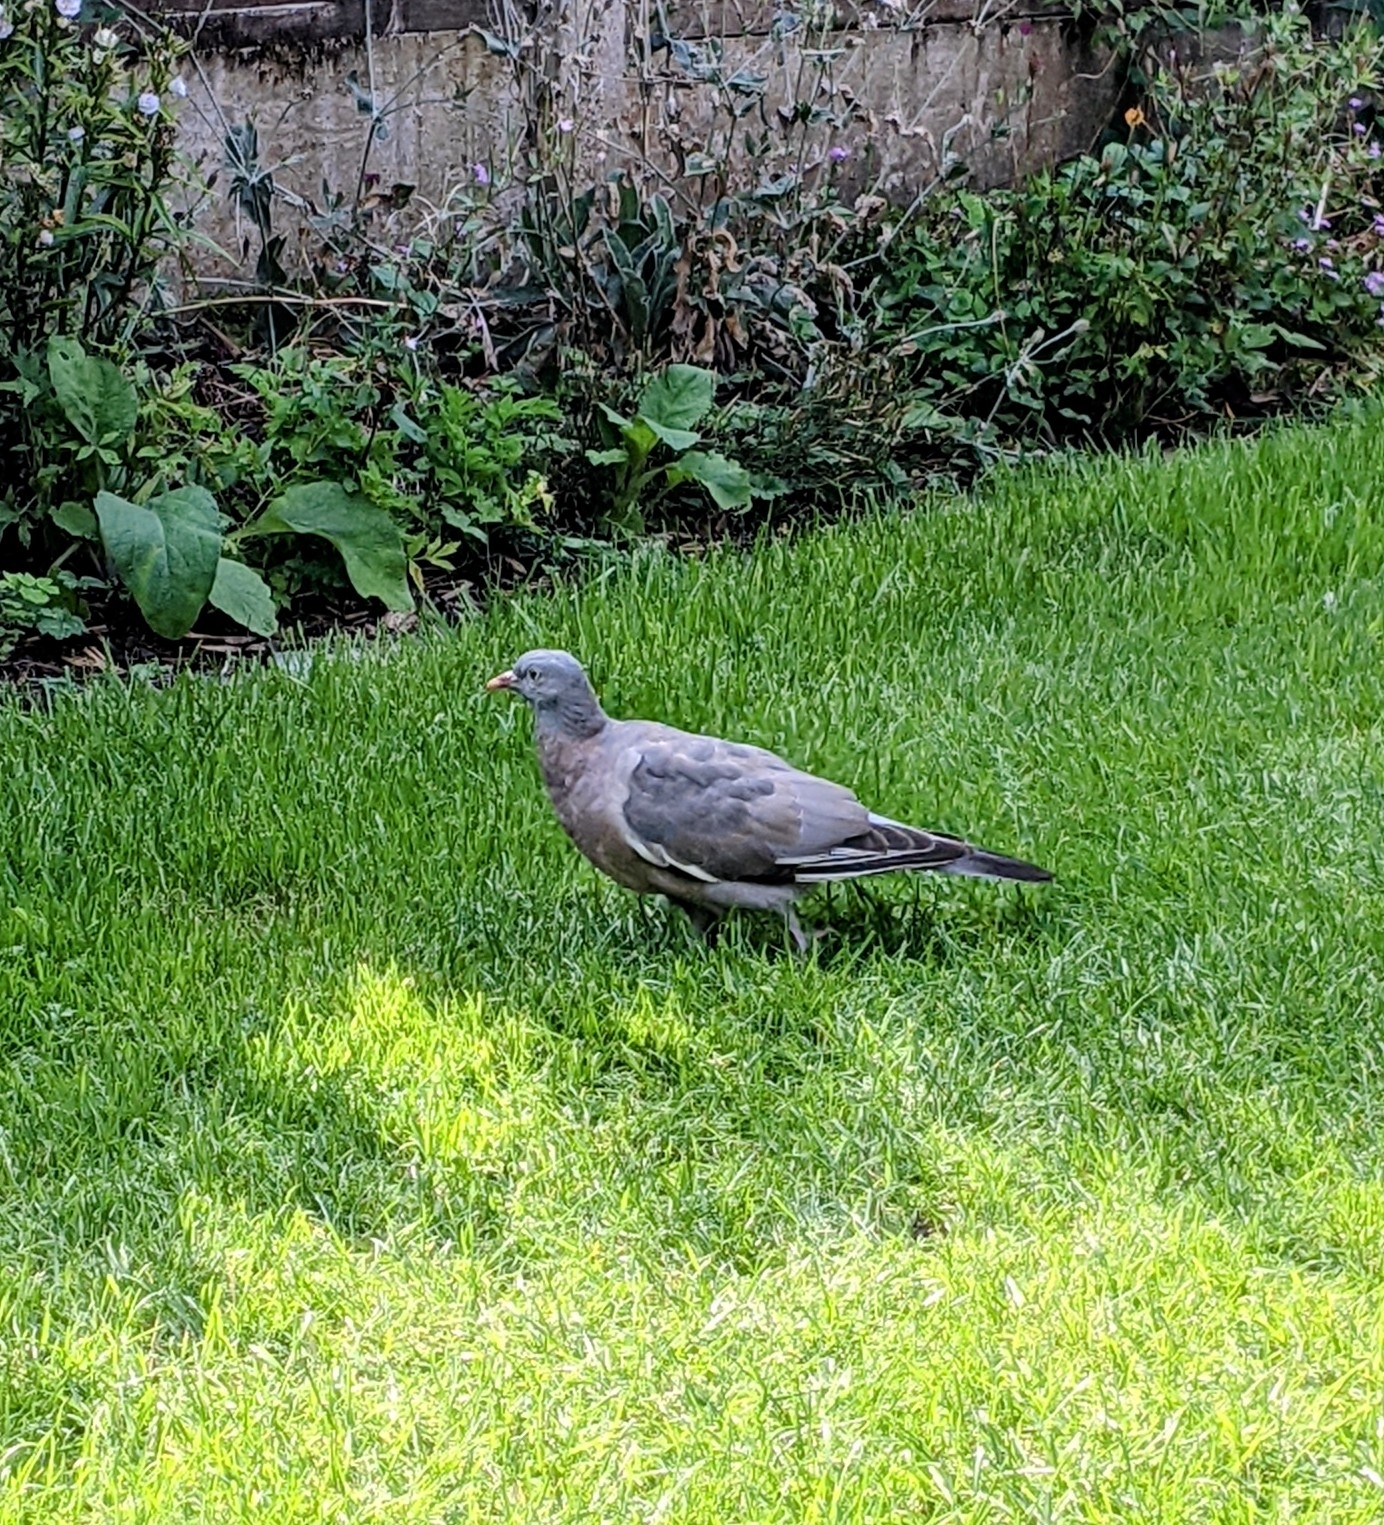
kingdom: Animalia
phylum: Chordata
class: Aves
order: Columbiformes
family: Columbidae
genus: Columba
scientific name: Columba palumbus
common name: Common wood pigeon
